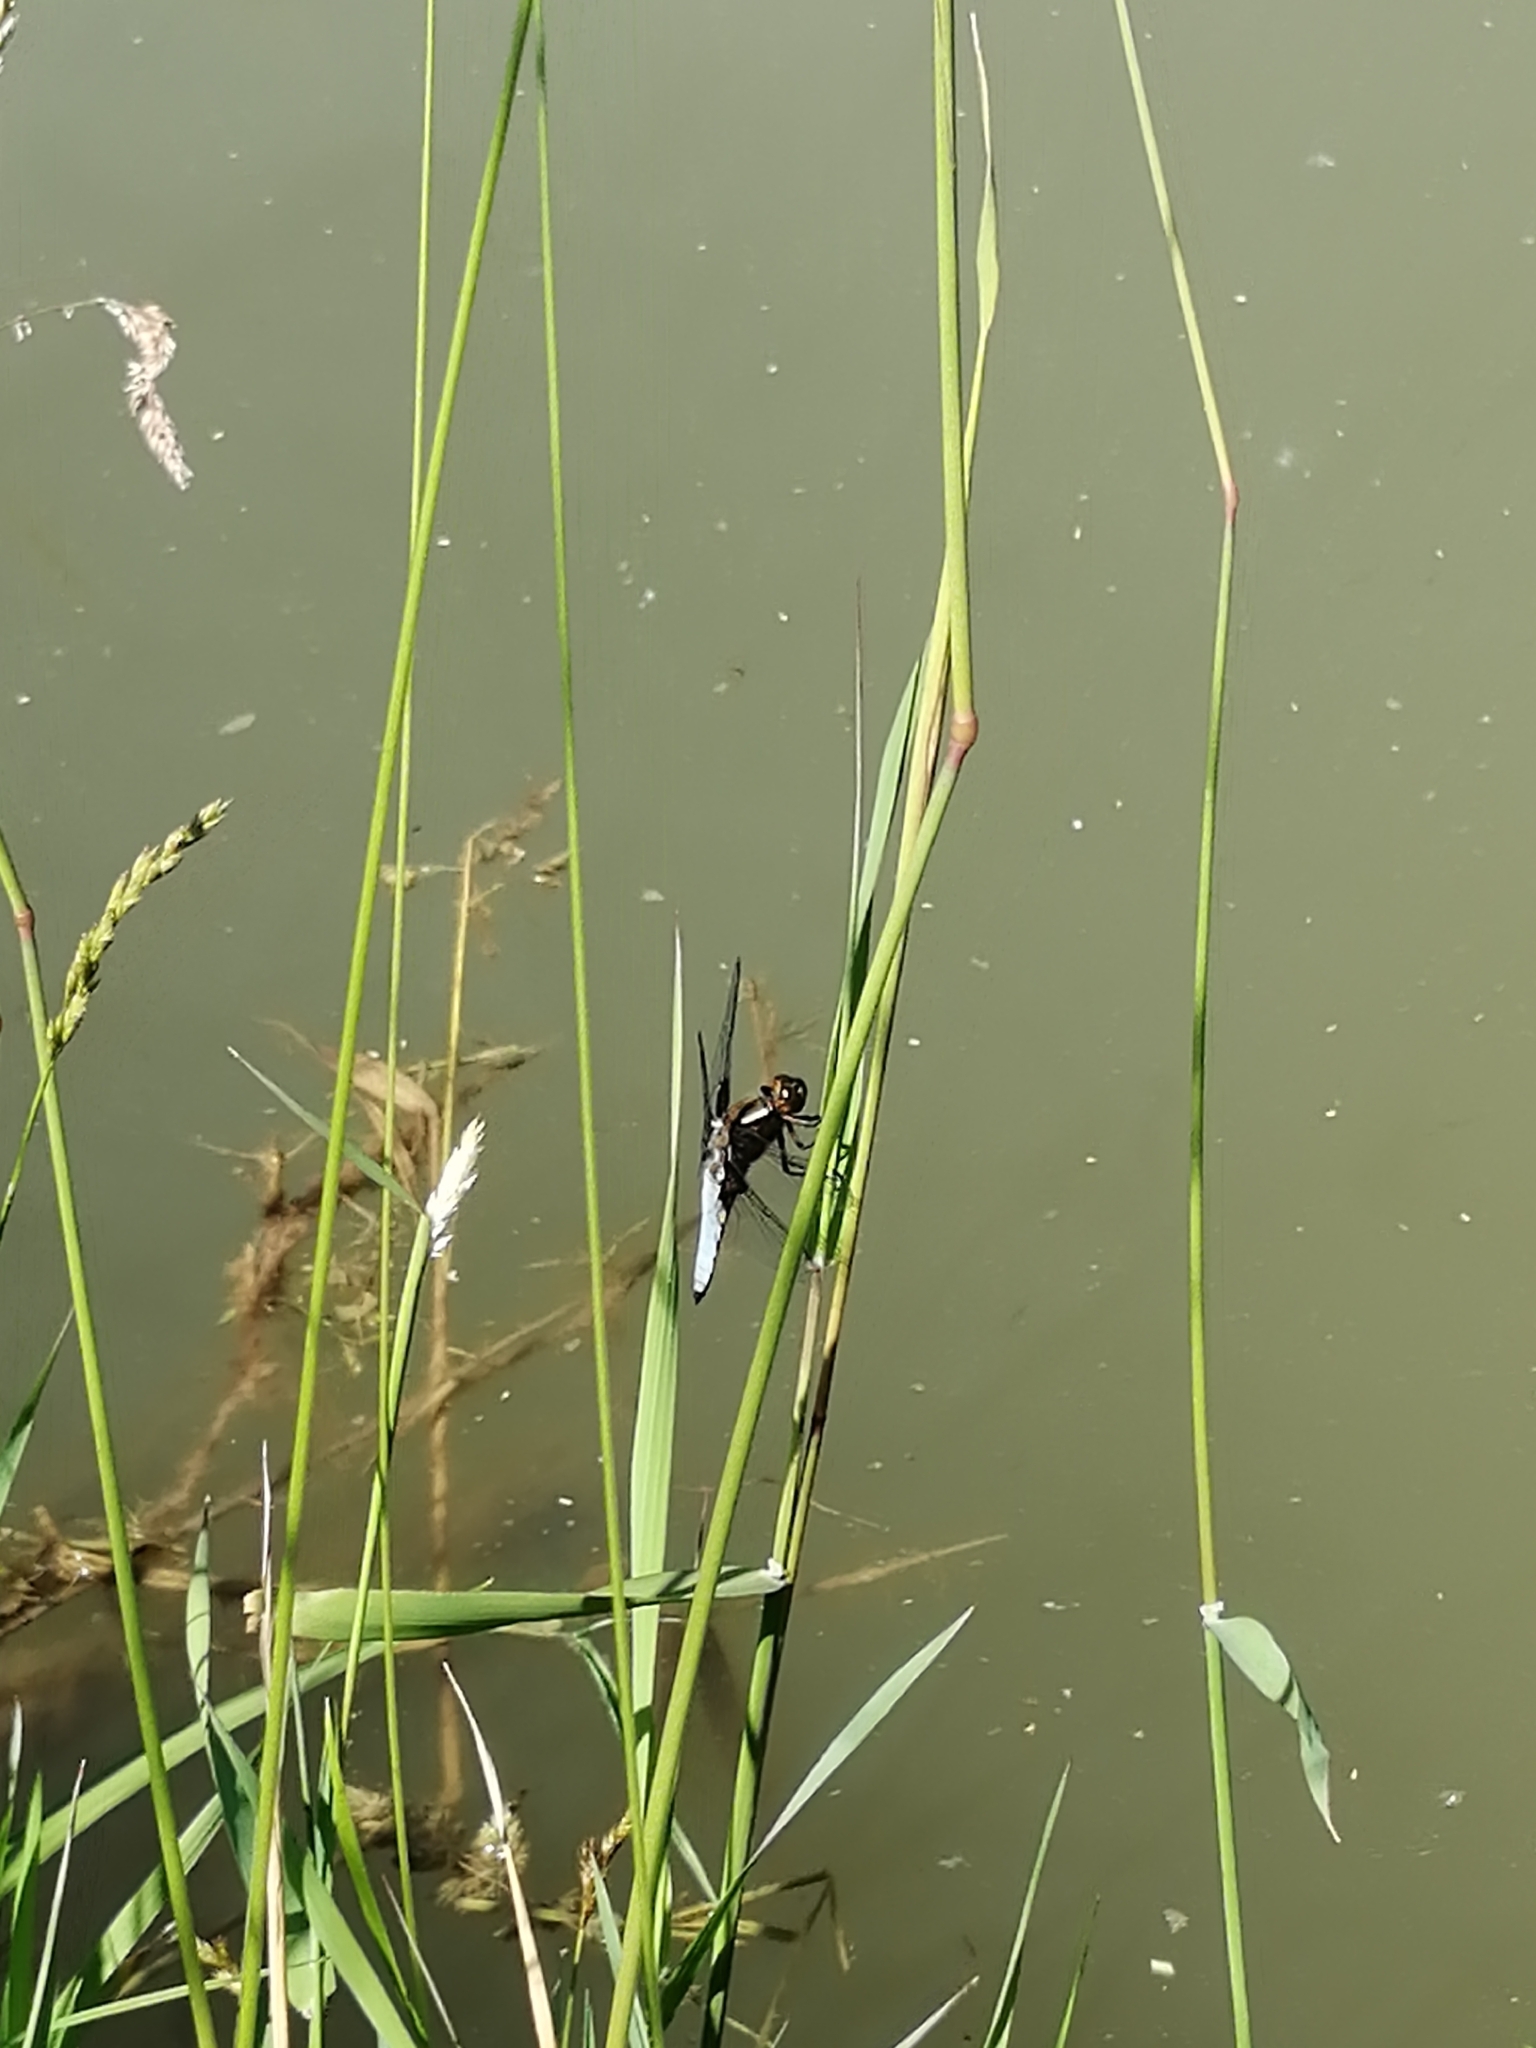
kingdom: Animalia
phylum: Arthropoda
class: Insecta
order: Odonata
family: Libellulidae
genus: Libellula
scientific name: Libellula depressa
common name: Broad-bodied chaser
